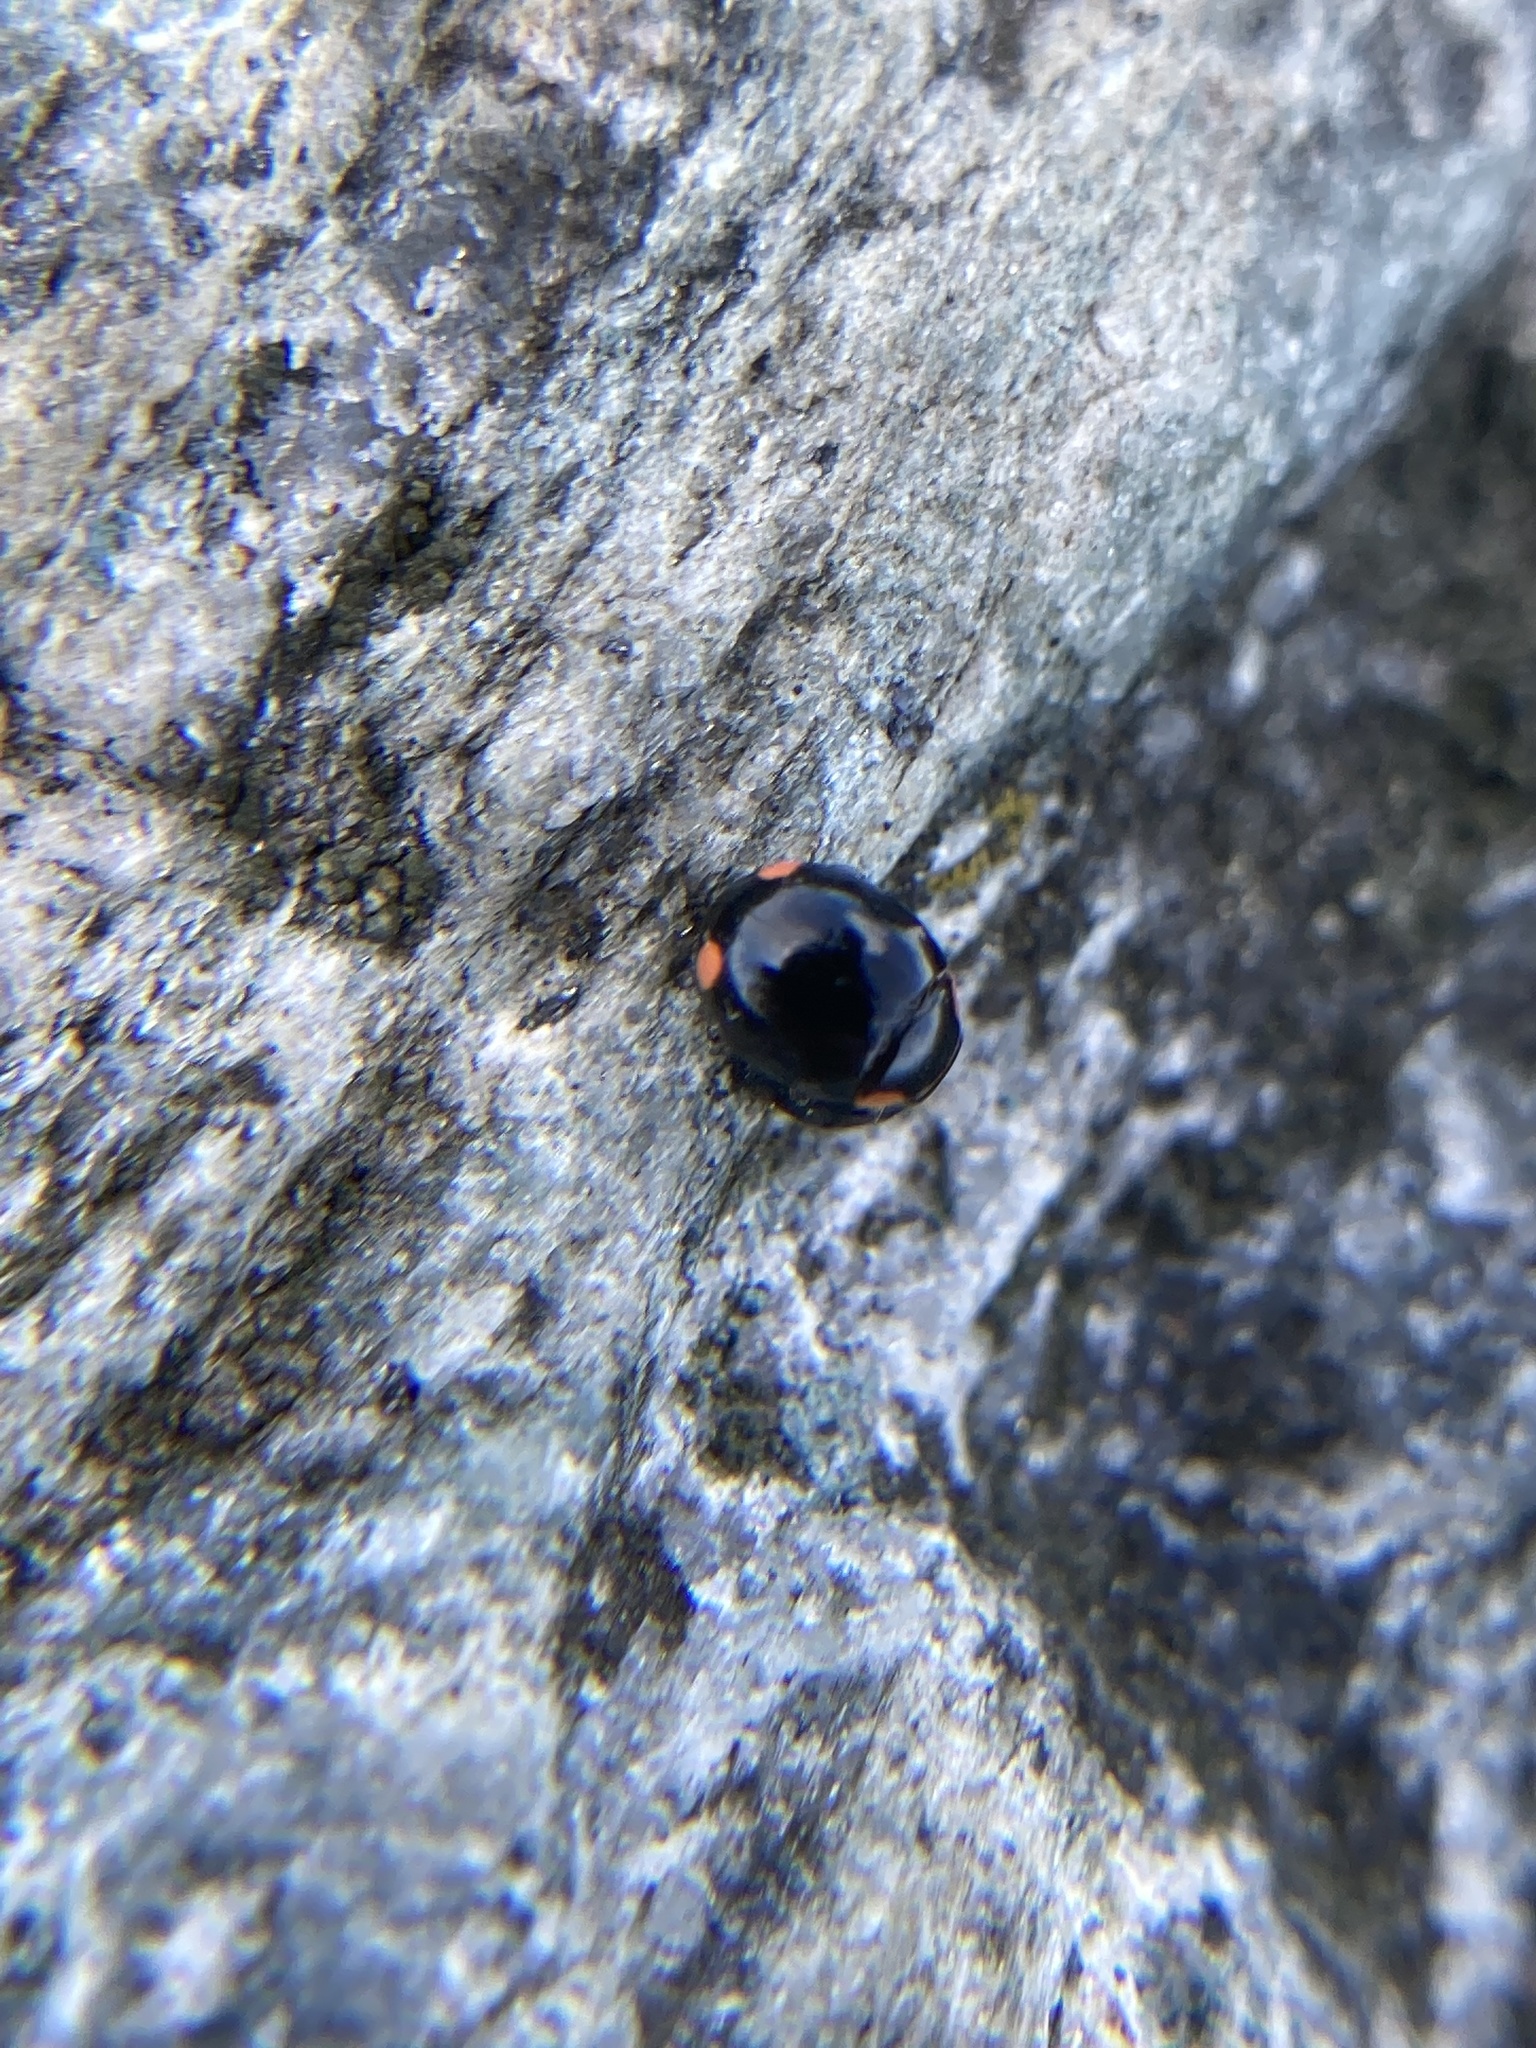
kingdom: Animalia
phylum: Arthropoda
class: Insecta
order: Coleoptera
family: Coccinellidae
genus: Hyperaspis
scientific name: Hyperaspis bigeminata
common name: Bigeminate sigil lady beetle
